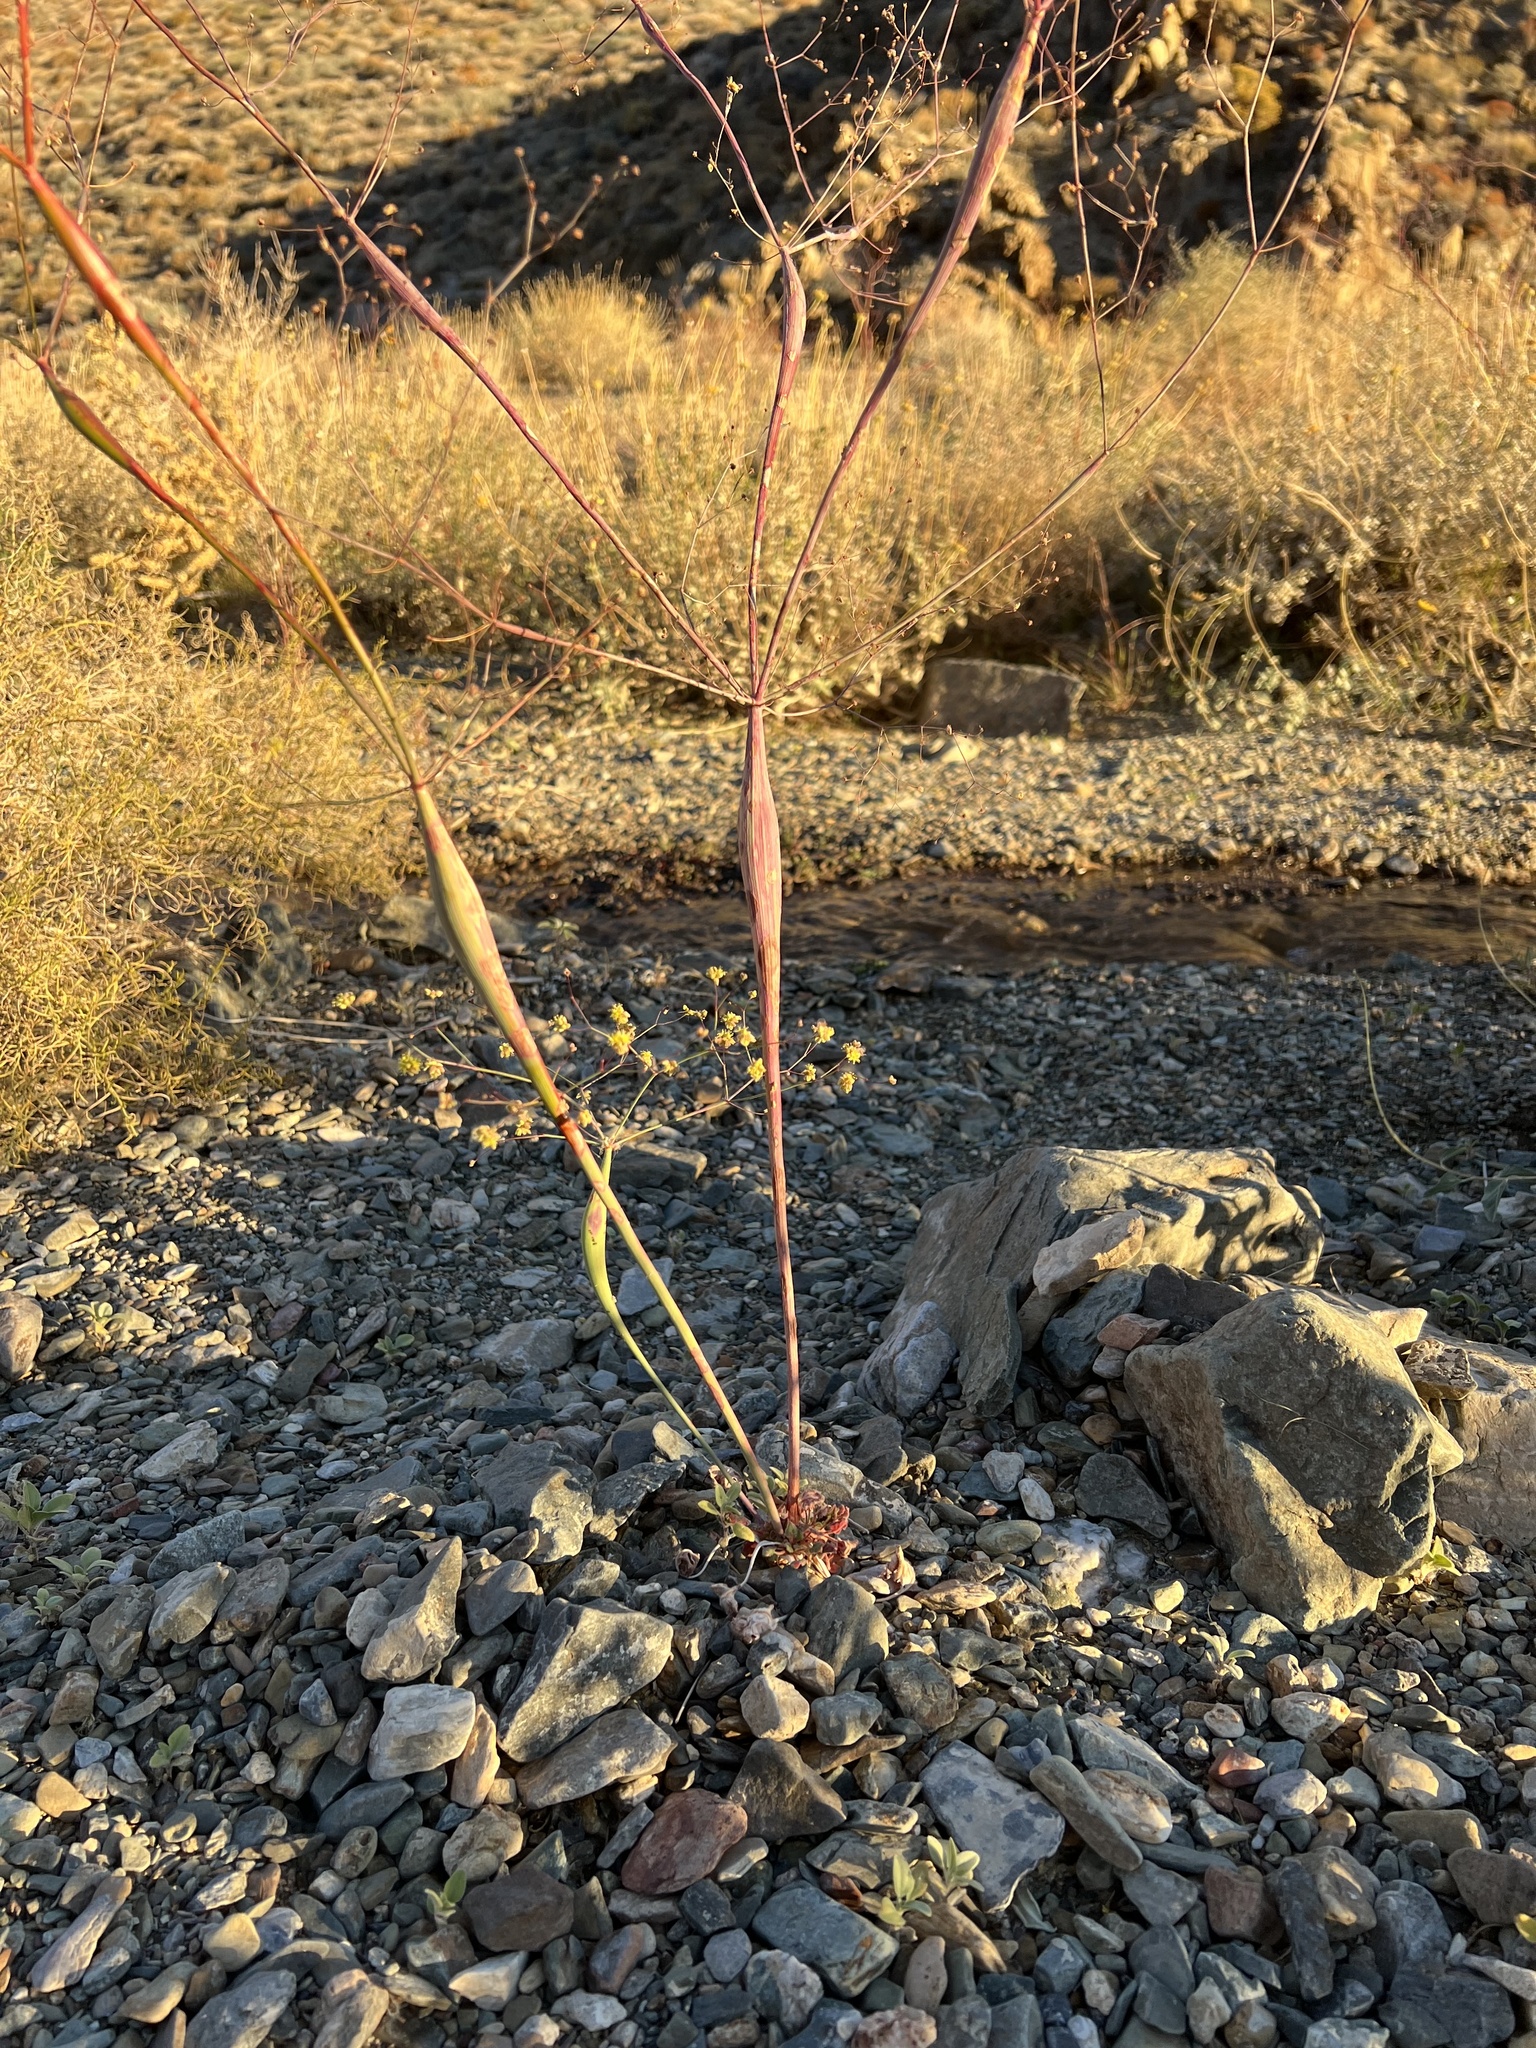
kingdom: Plantae
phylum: Tracheophyta
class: Magnoliopsida
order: Caryophyllales
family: Polygonaceae
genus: Eriogonum
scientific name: Eriogonum inflatum
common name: Desert trumpet
